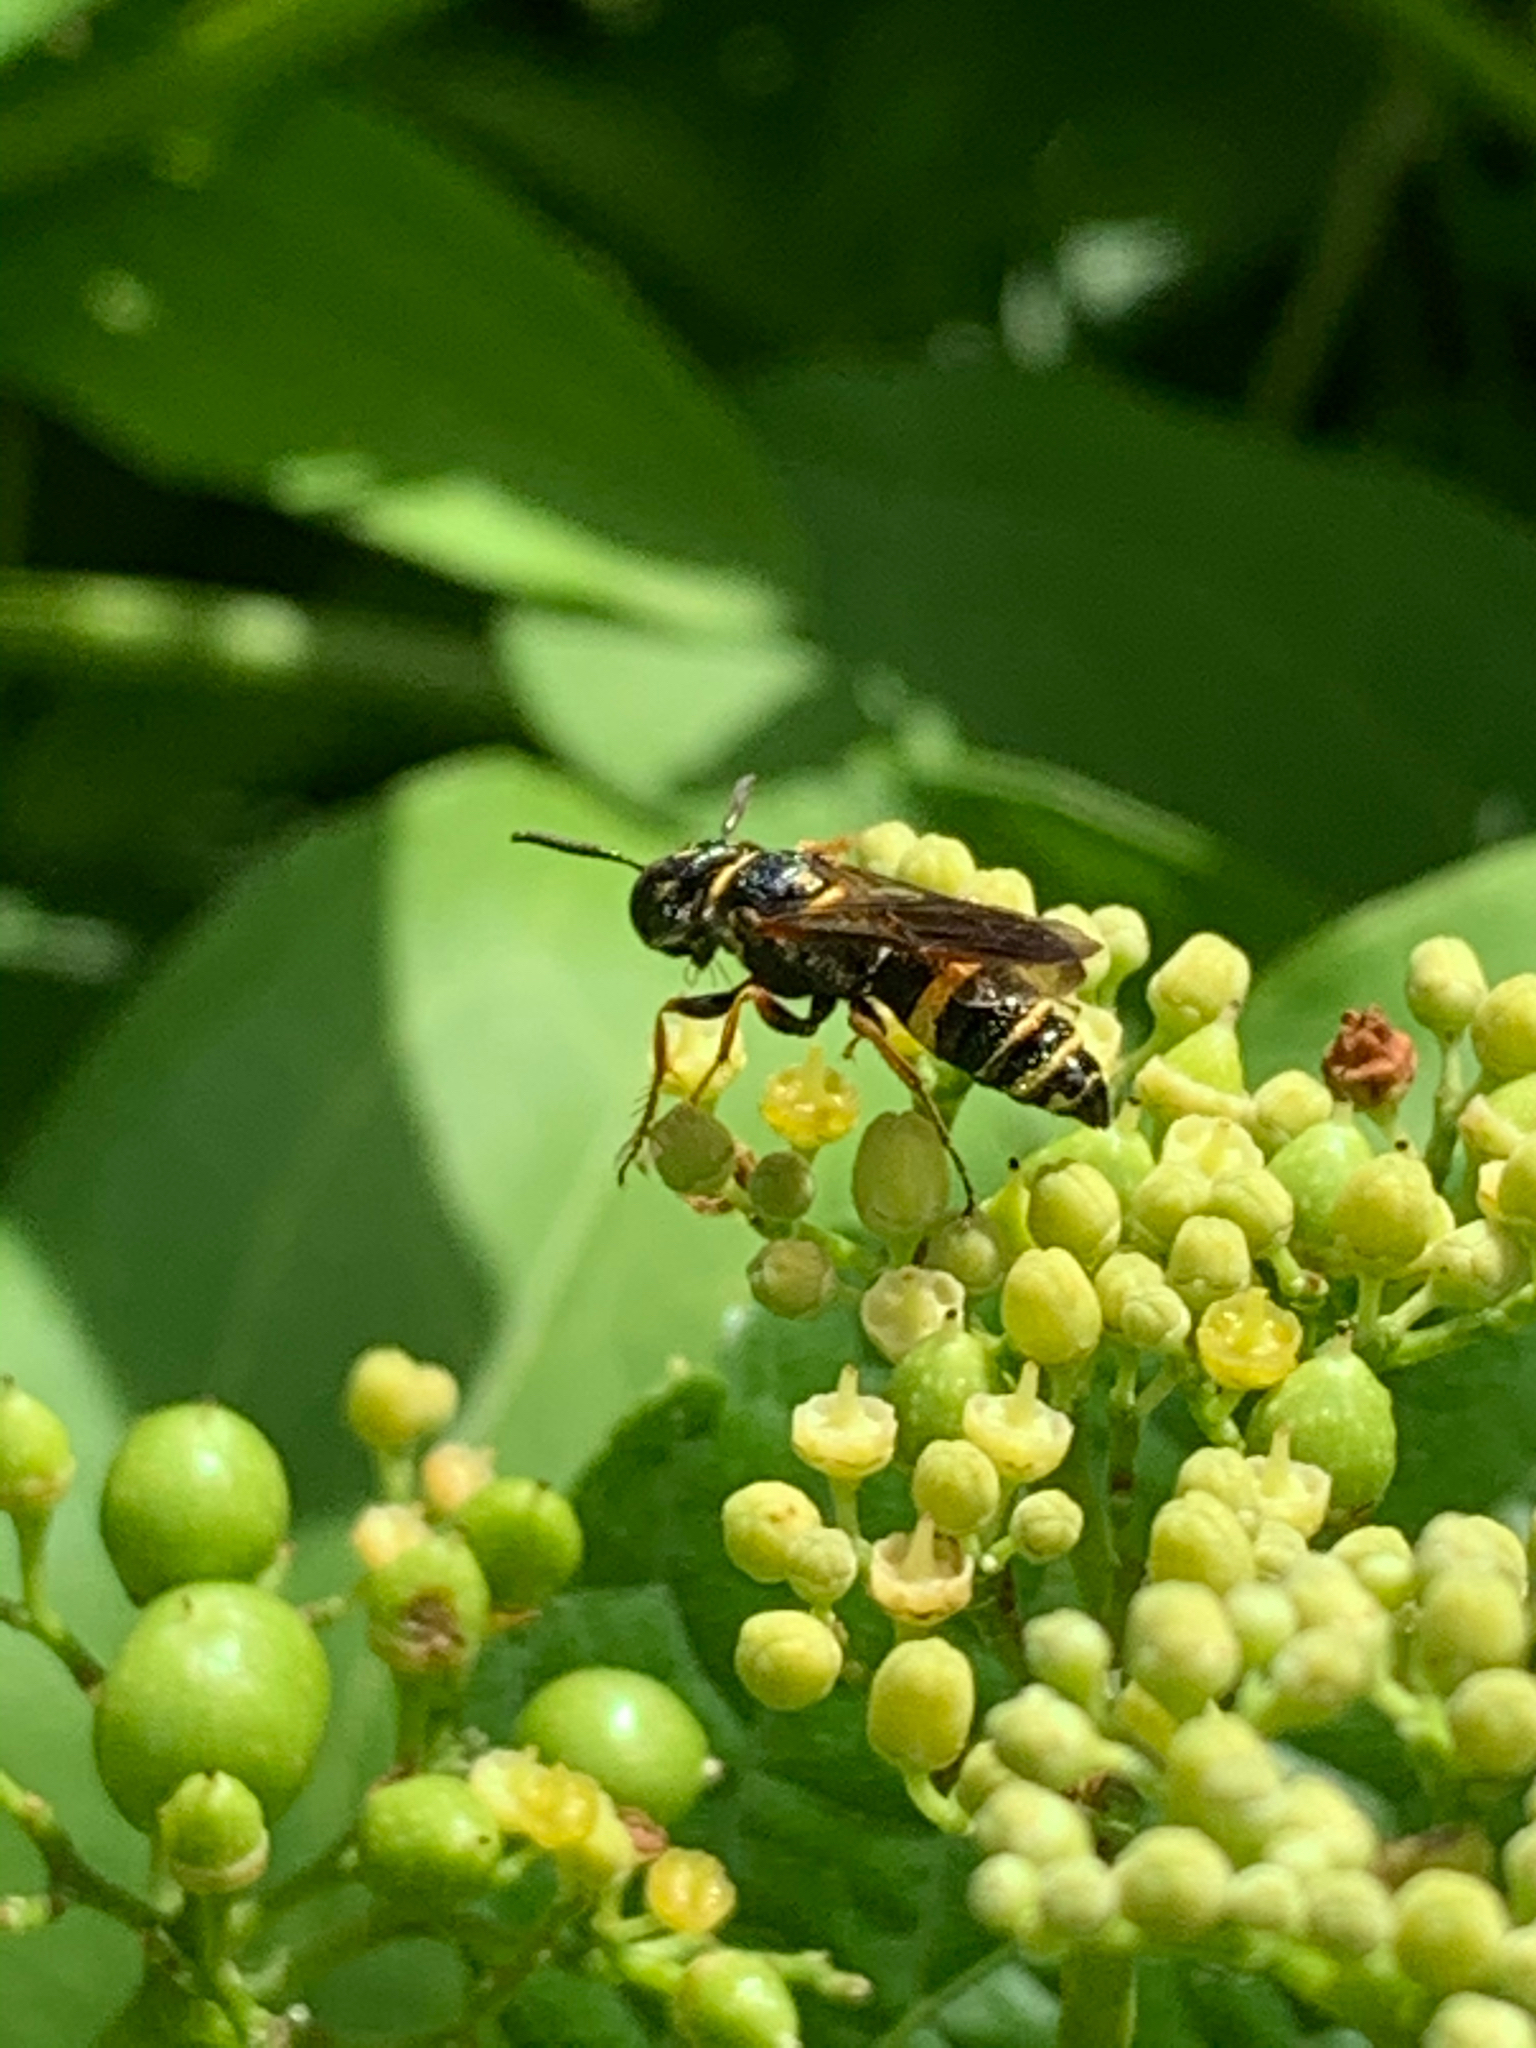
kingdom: Animalia
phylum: Arthropoda
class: Insecta
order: Hymenoptera
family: Crabronidae
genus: Philanthus
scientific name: Philanthus gibbosus
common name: Humped beewolf
